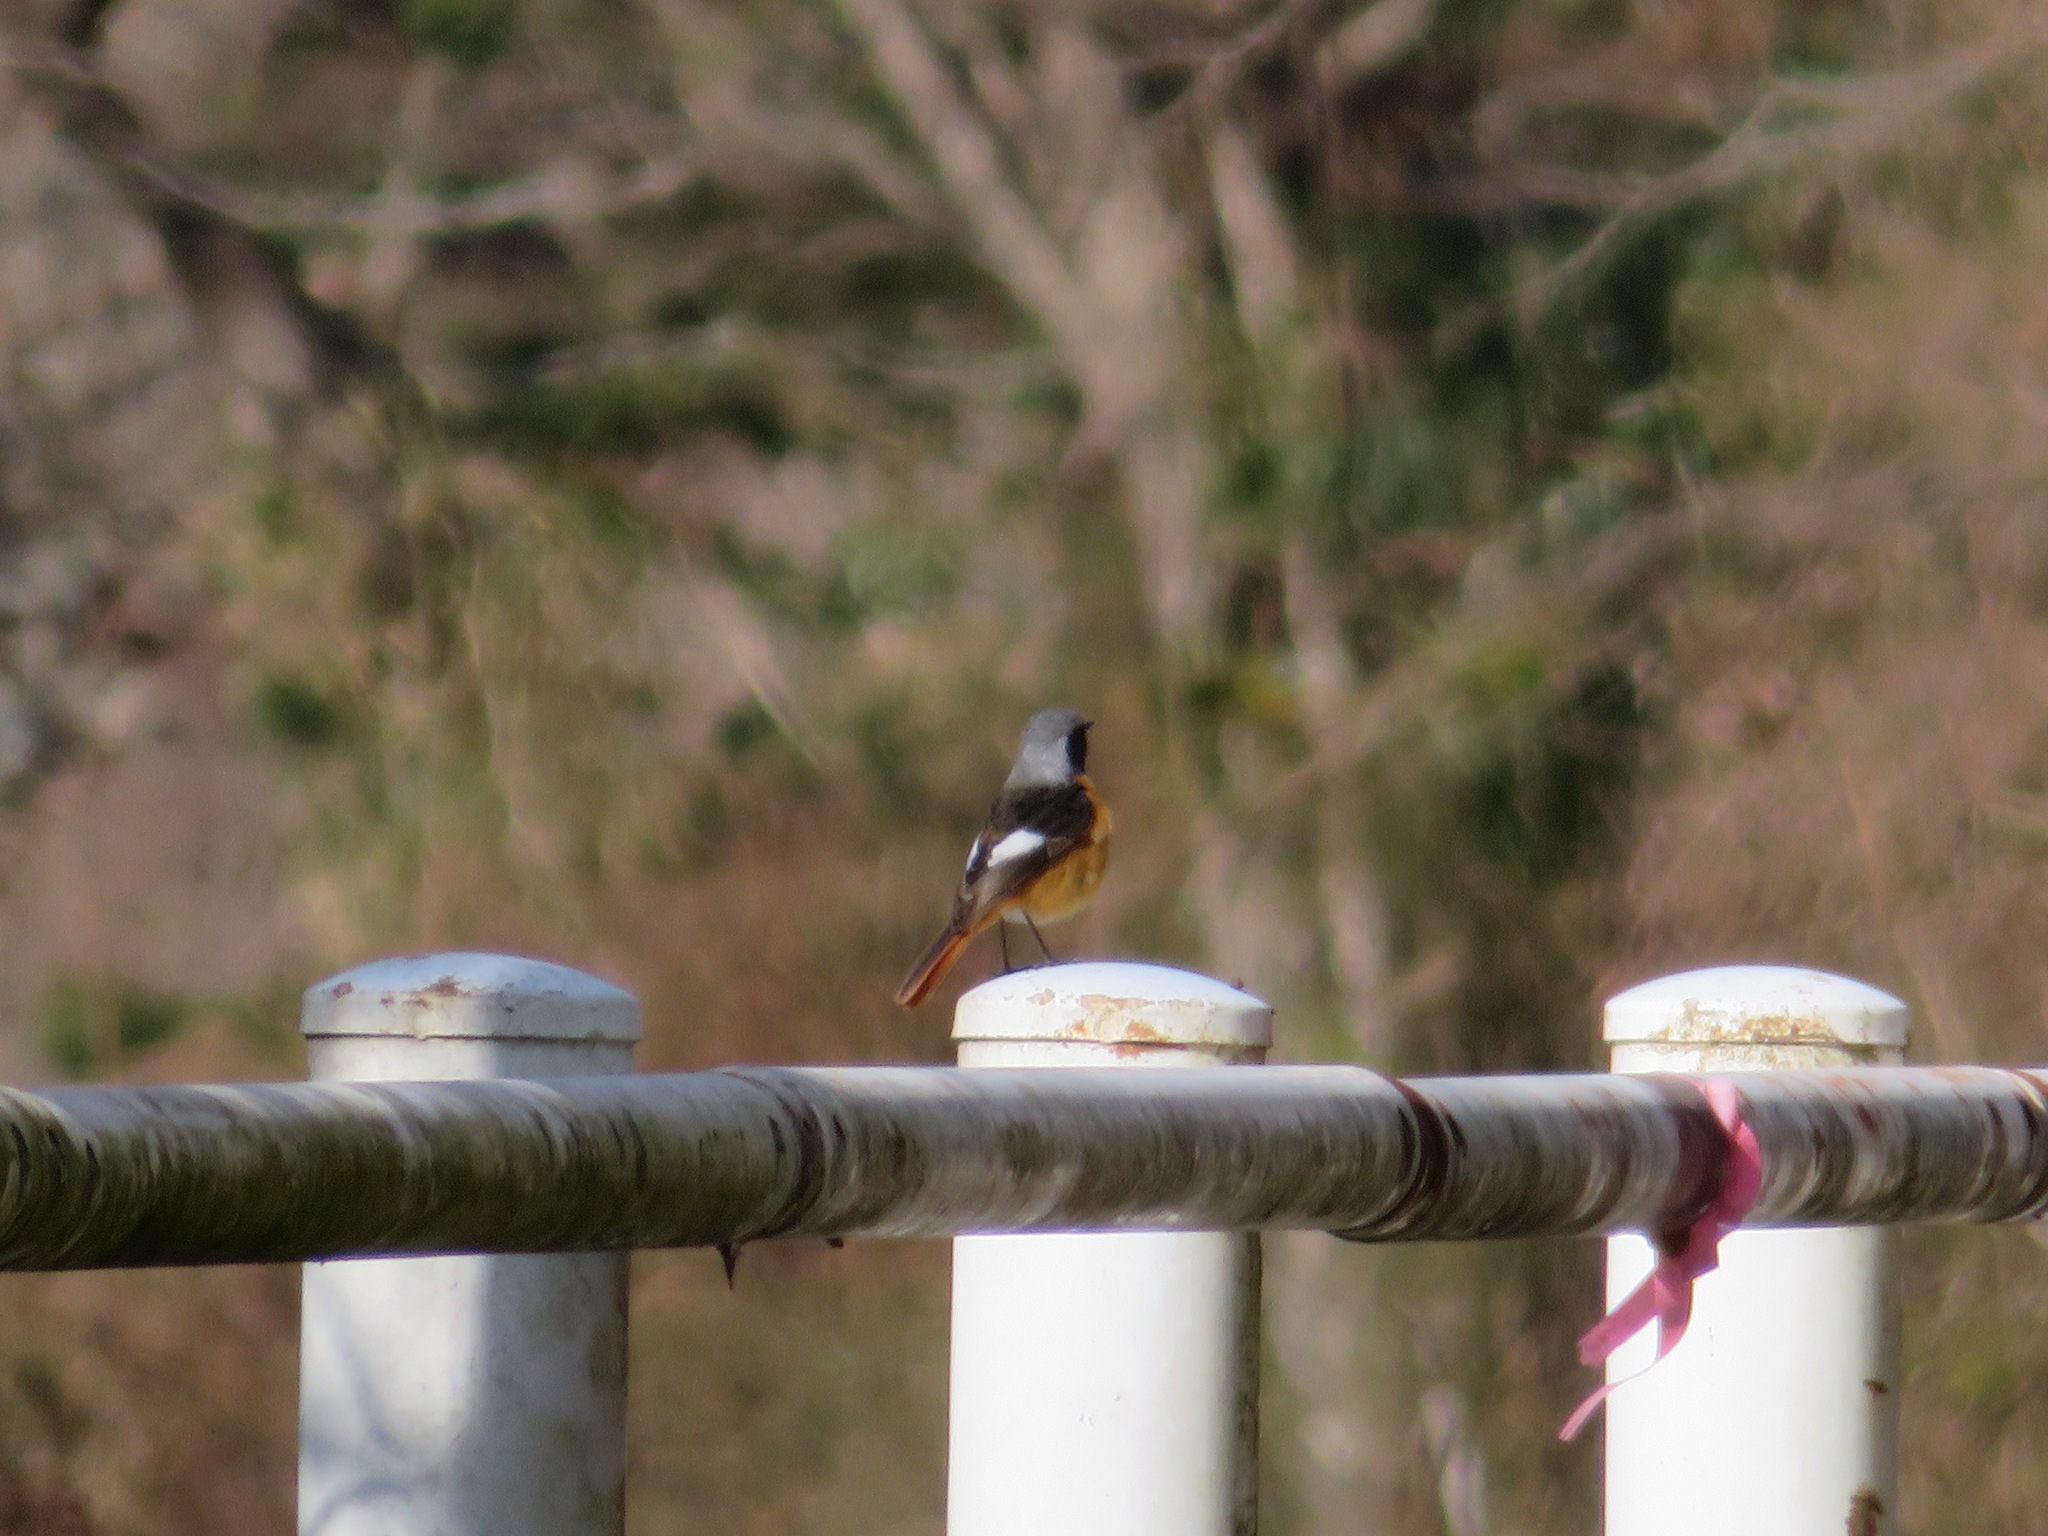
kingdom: Animalia
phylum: Chordata
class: Aves
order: Passeriformes
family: Muscicapidae
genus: Phoenicurus
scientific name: Phoenicurus auroreus
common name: Daurian redstart
